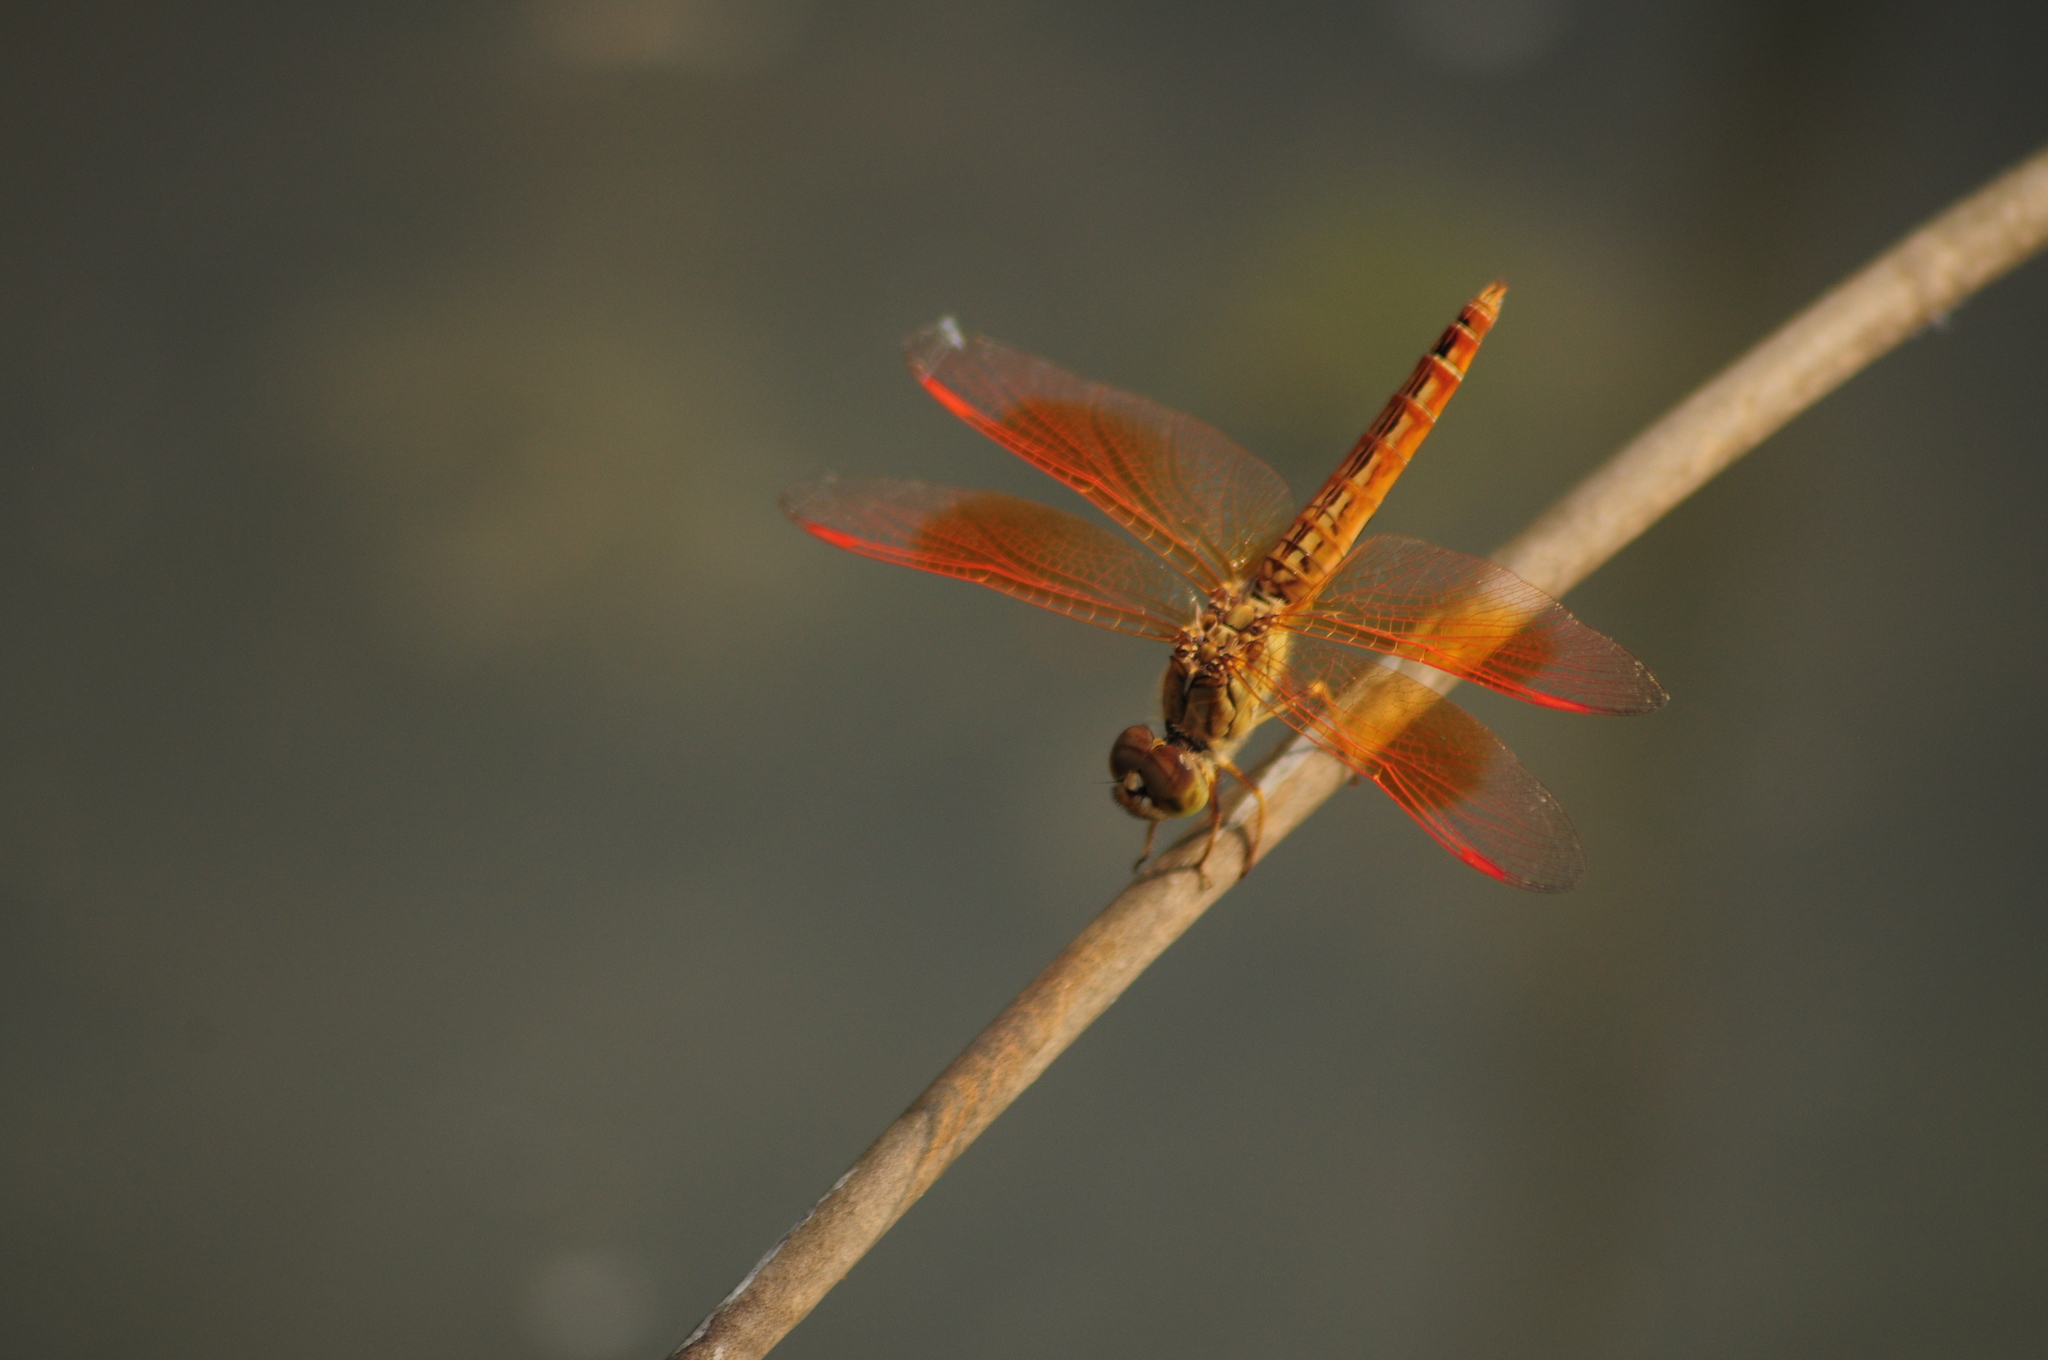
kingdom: Animalia
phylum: Arthropoda
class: Insecta
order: Odonata
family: Libellulidae
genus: Brachythemis
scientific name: Brachythemis contaminata
